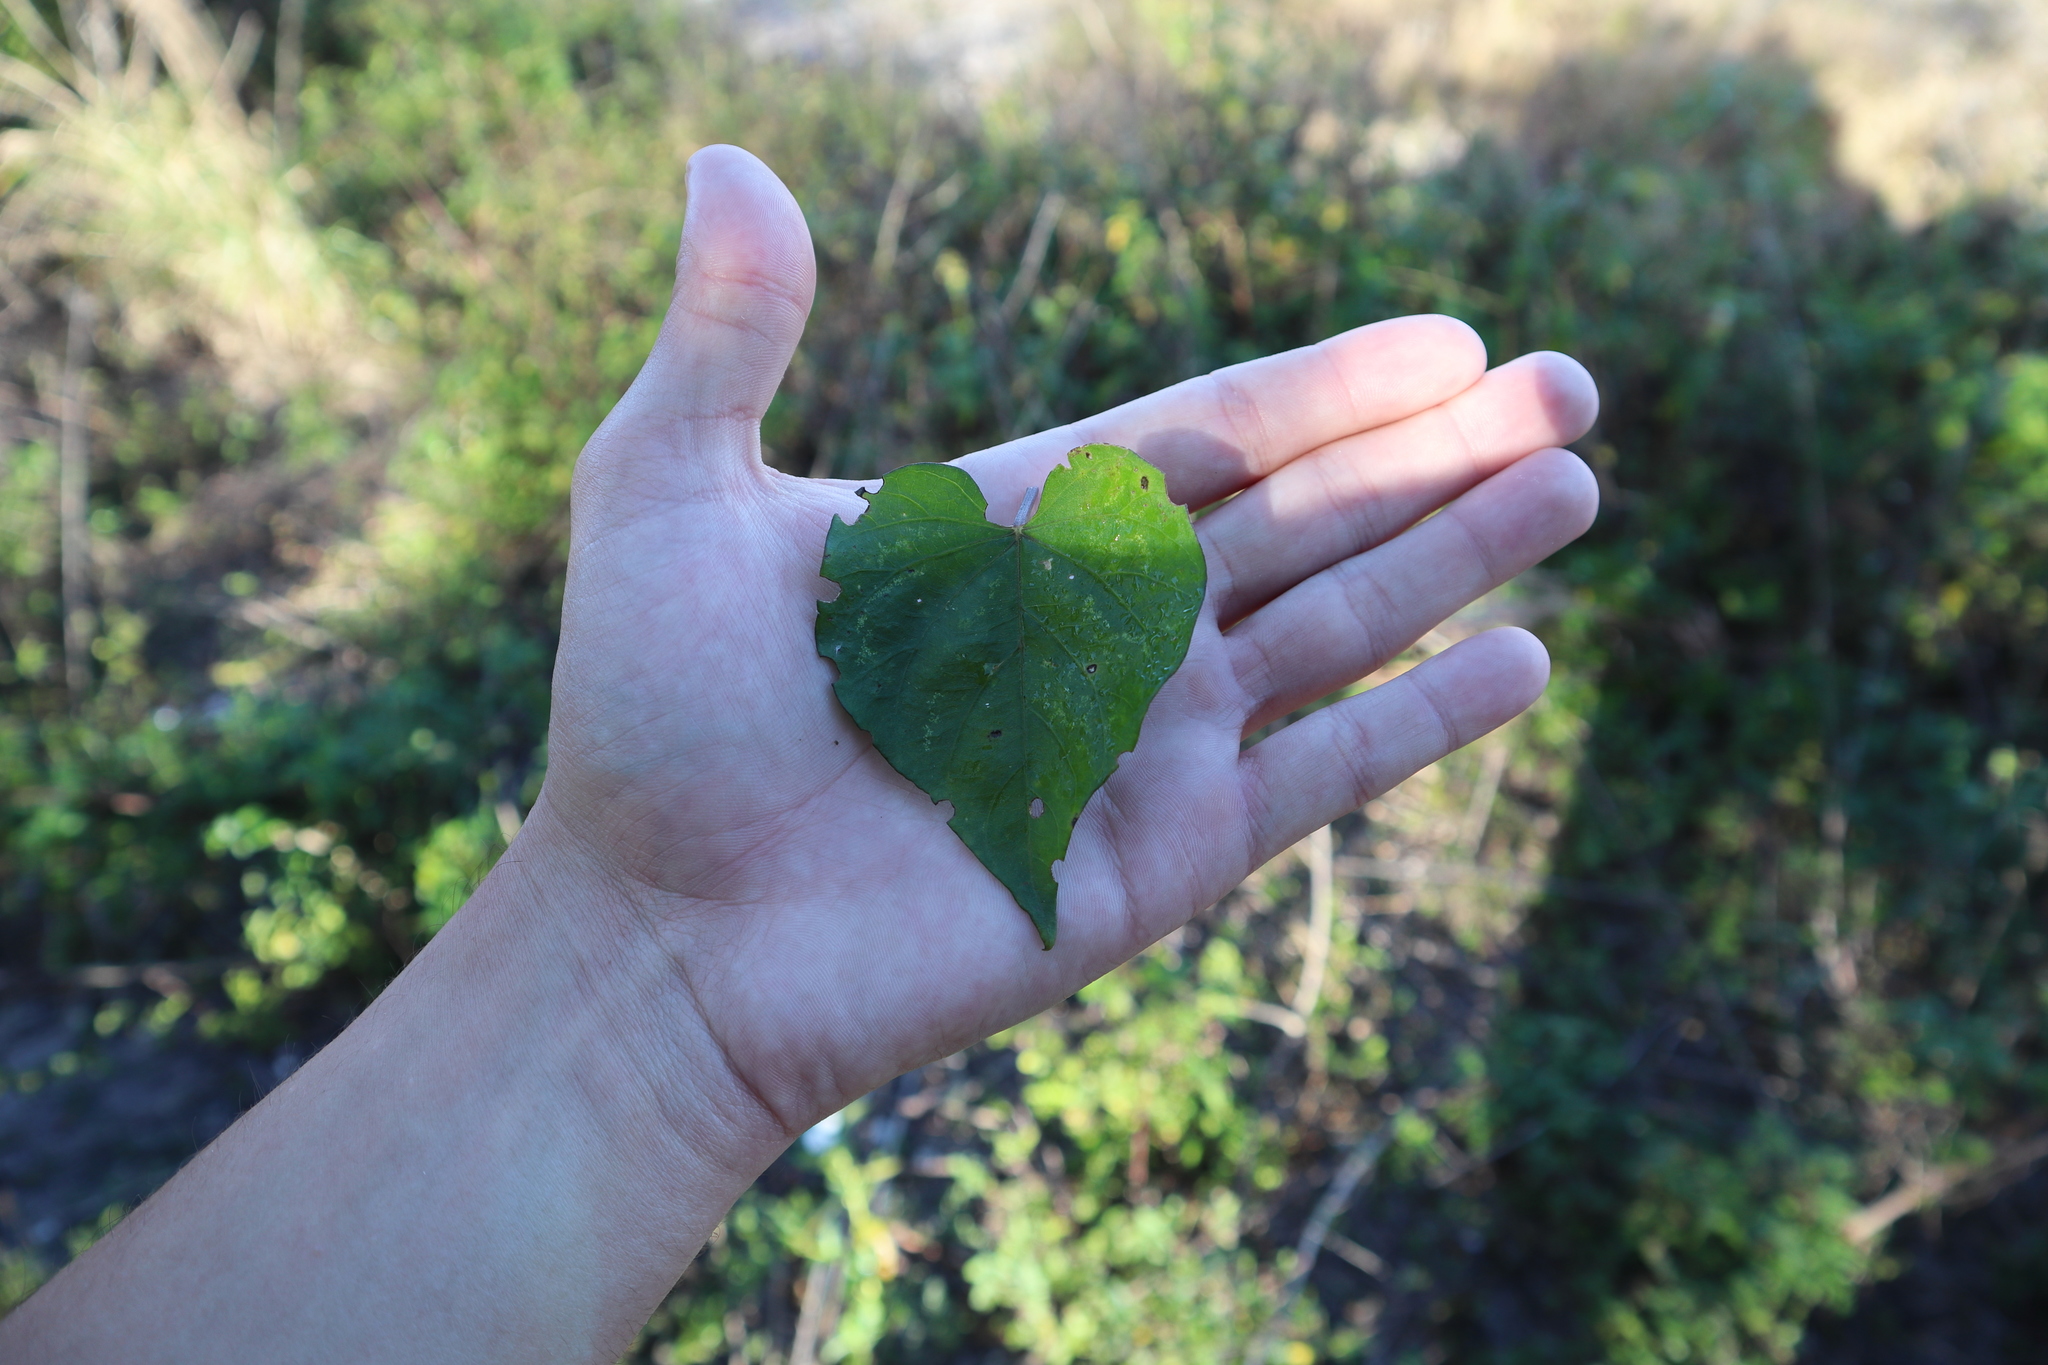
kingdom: Plantae
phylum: Tracheophyta
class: Magnoliopsida
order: Solanales
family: Convolvulaceae
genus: Ipomoea
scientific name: Ipomoea indica
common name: Blue dawnflower
